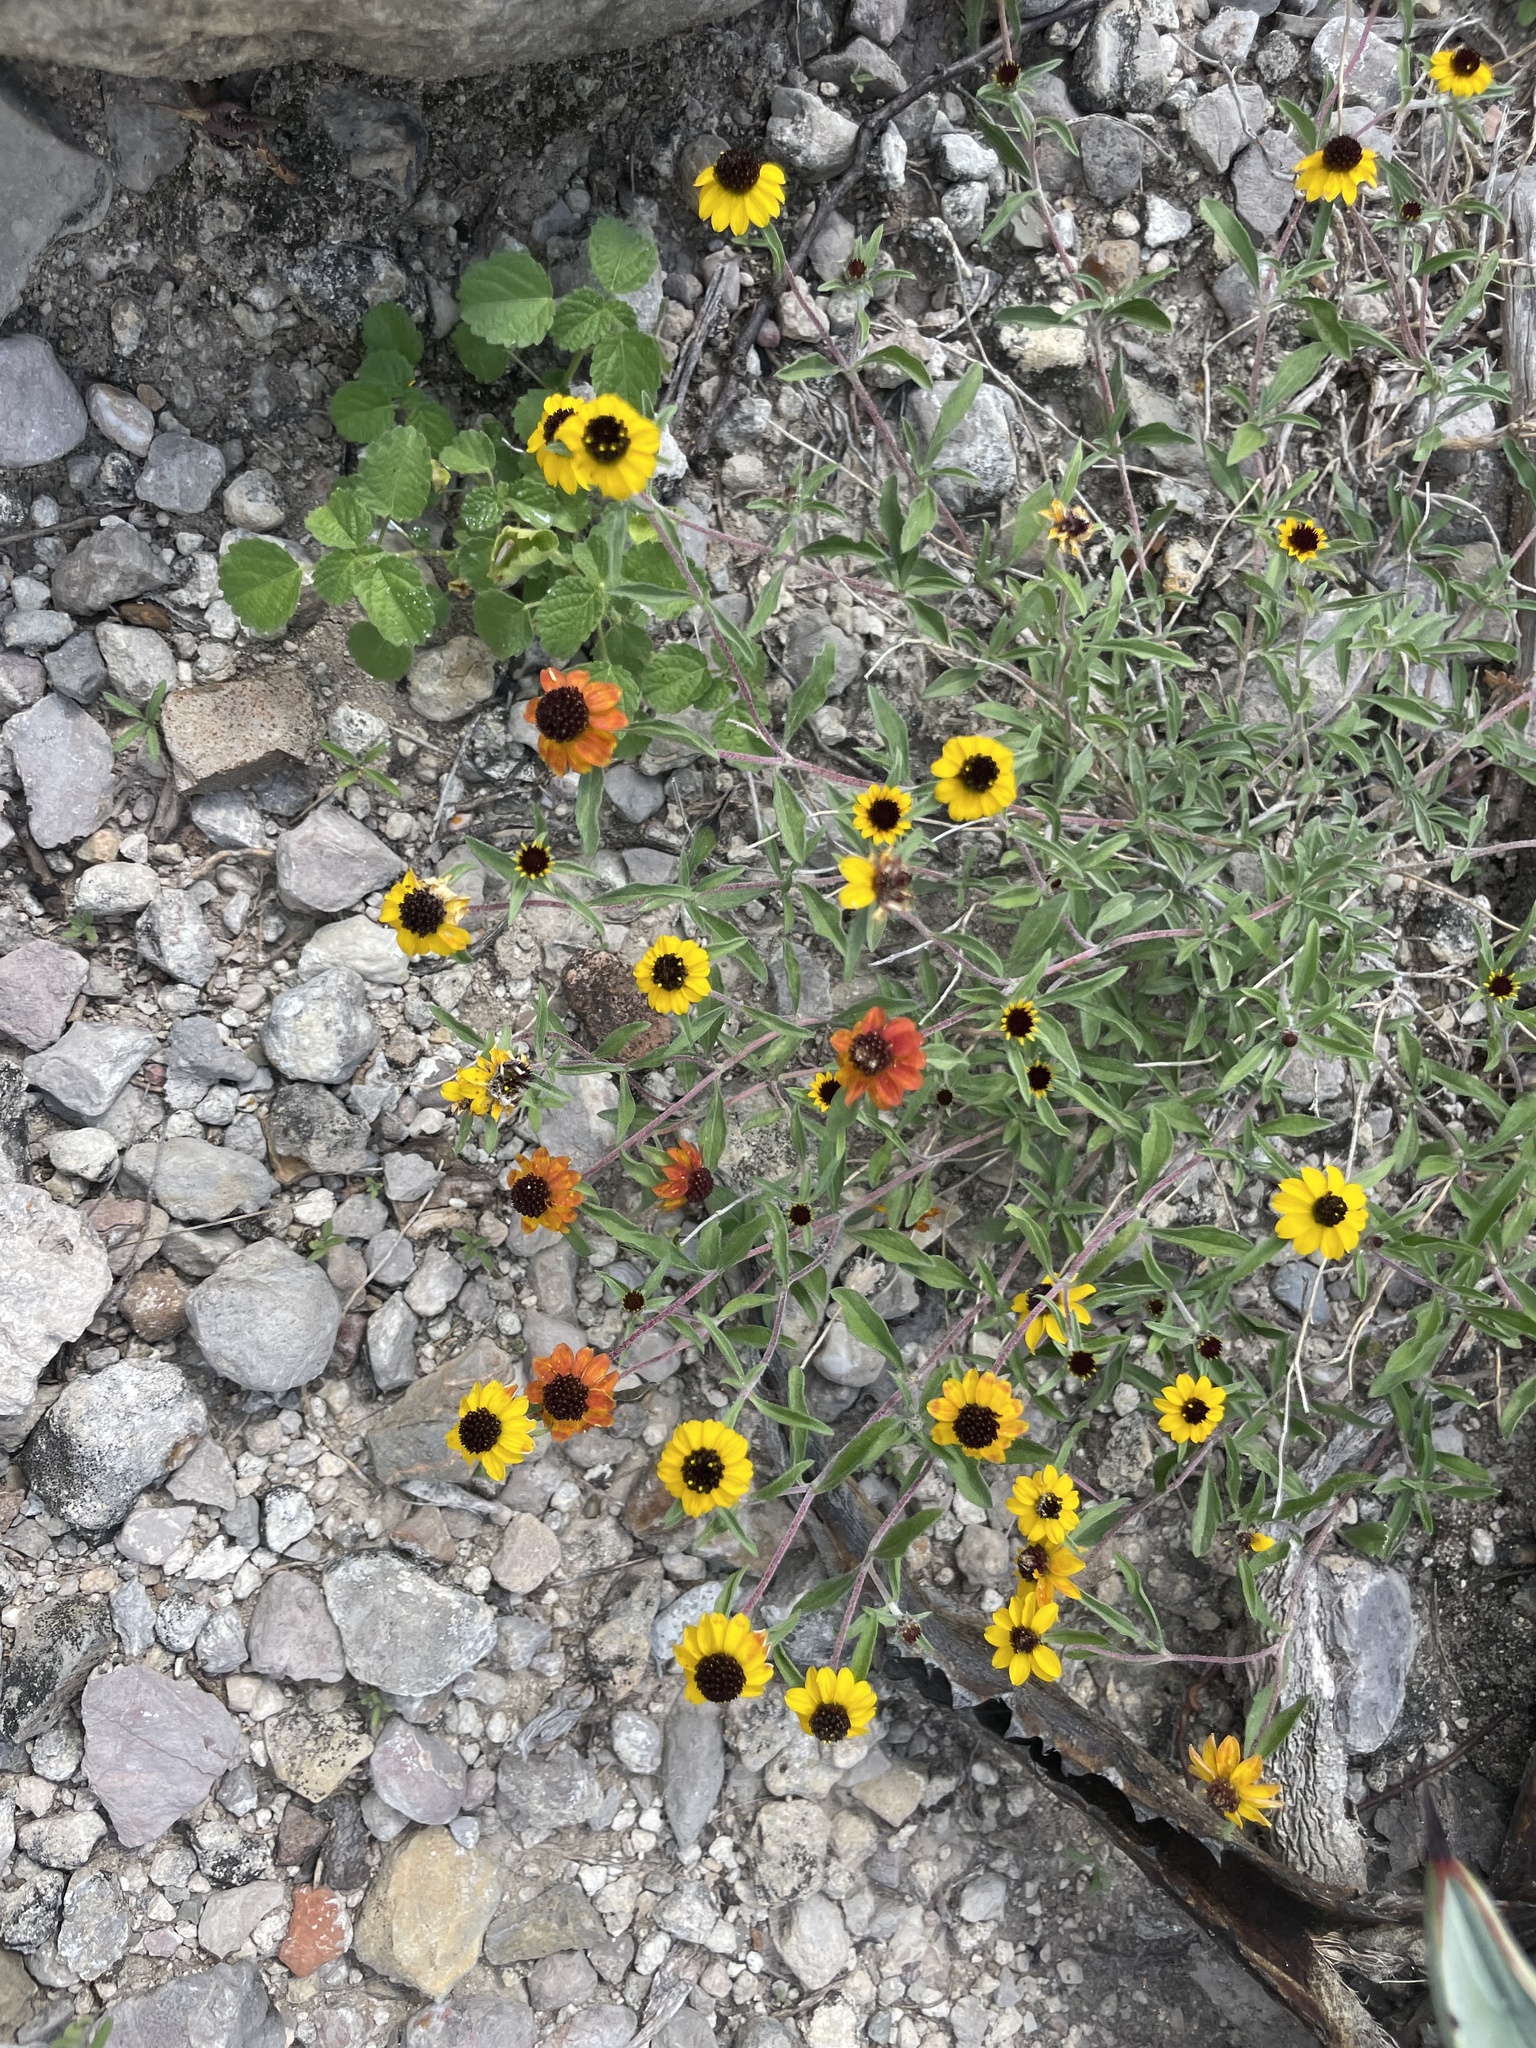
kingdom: Plantae
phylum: Tracheophyta
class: Magnoliopsida
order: Asterales
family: Asteraceae
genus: Sanvitalia
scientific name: Sanvitalia procumbens
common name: Mexican creeping zinnia
